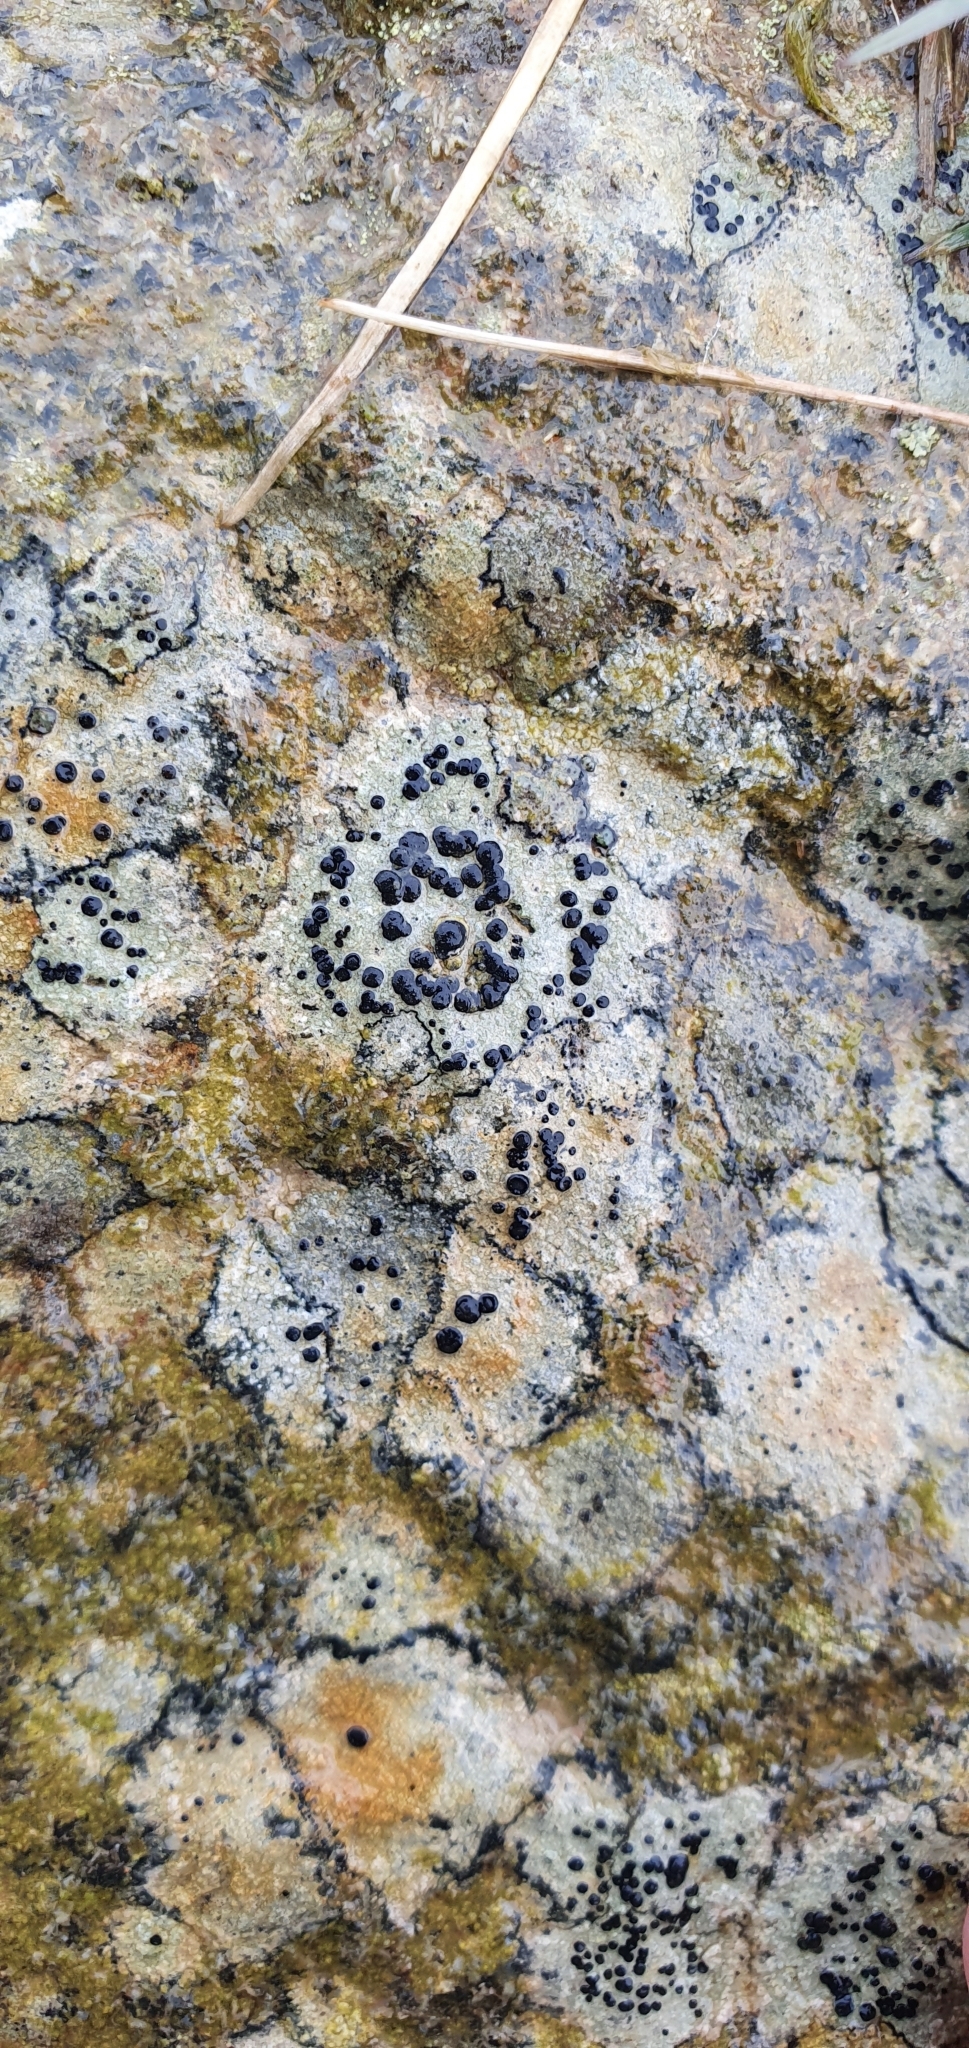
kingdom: Fungi
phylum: Ascomycota
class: Lecanoromycetes
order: Lecideales
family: Lecideaceae
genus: Porpidia
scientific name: Porpidia crustulata
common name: Concentric boulder lichen
